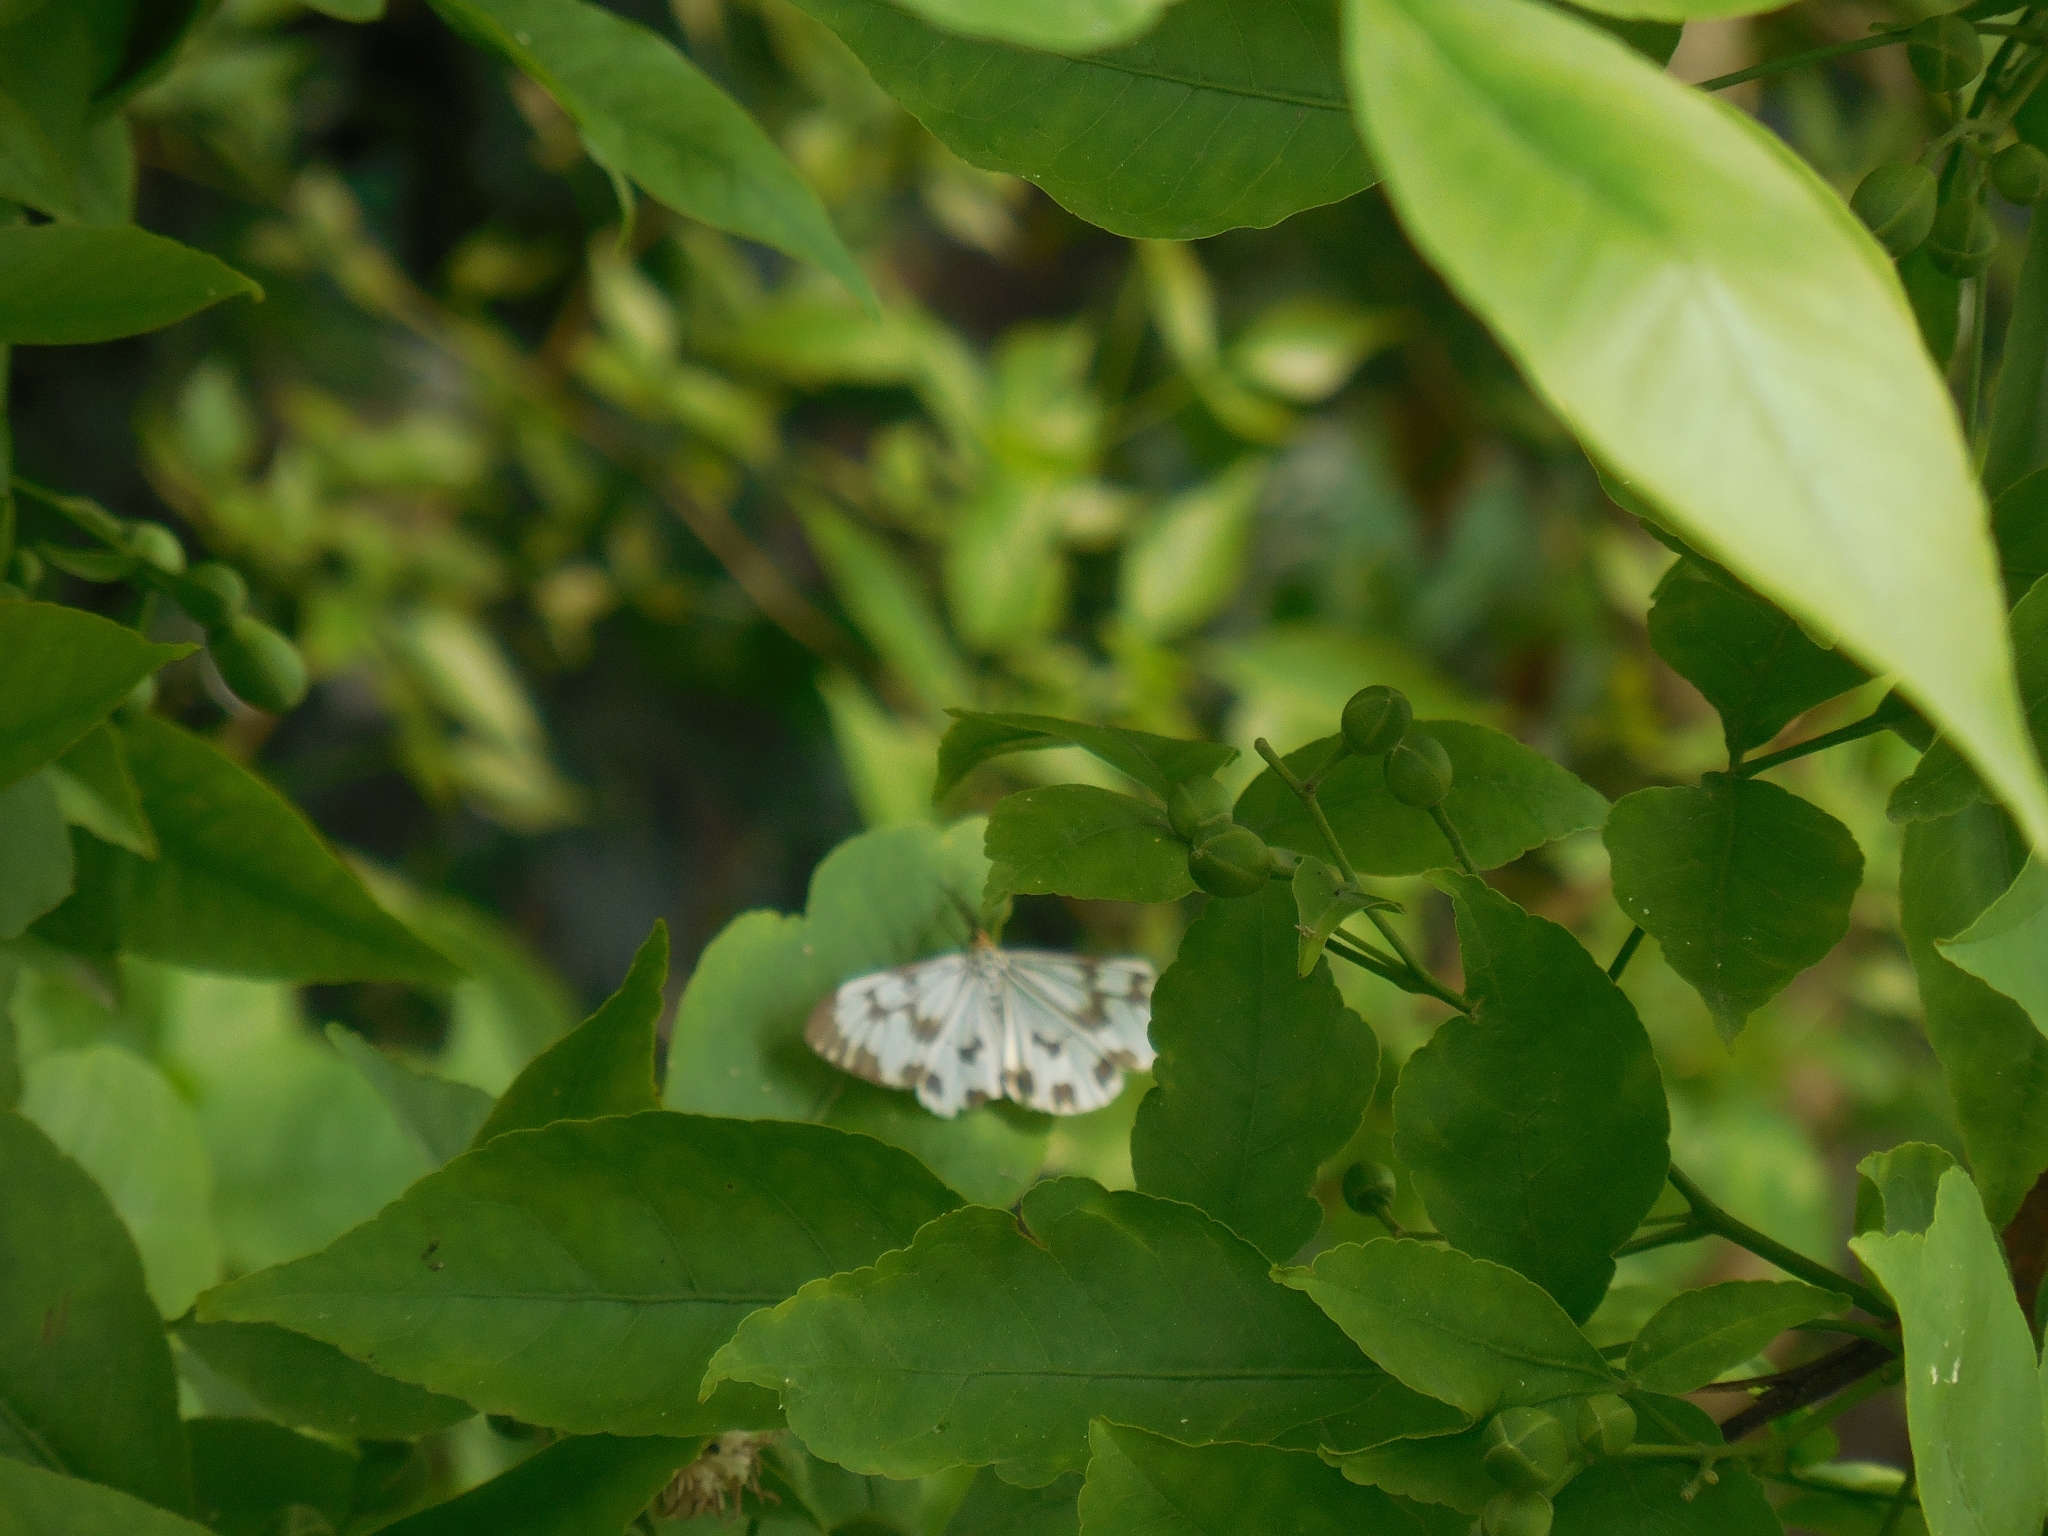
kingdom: Animalia
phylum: Arthropoda
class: Insecta
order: Lepidoptera
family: Erebidae
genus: Nyctemera
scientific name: Nyctemera adversata
